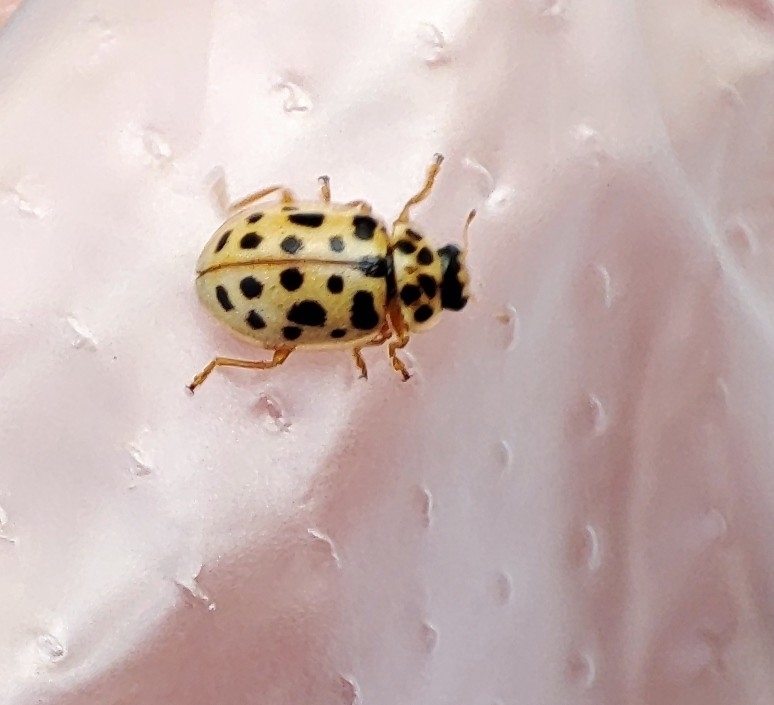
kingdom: Animalia
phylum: Arthropoda
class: Insecta
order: Coleoptera
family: Coccinellidae
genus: Anisosticta
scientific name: Anisosticta novemdecimpunctata
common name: Water ladybird
